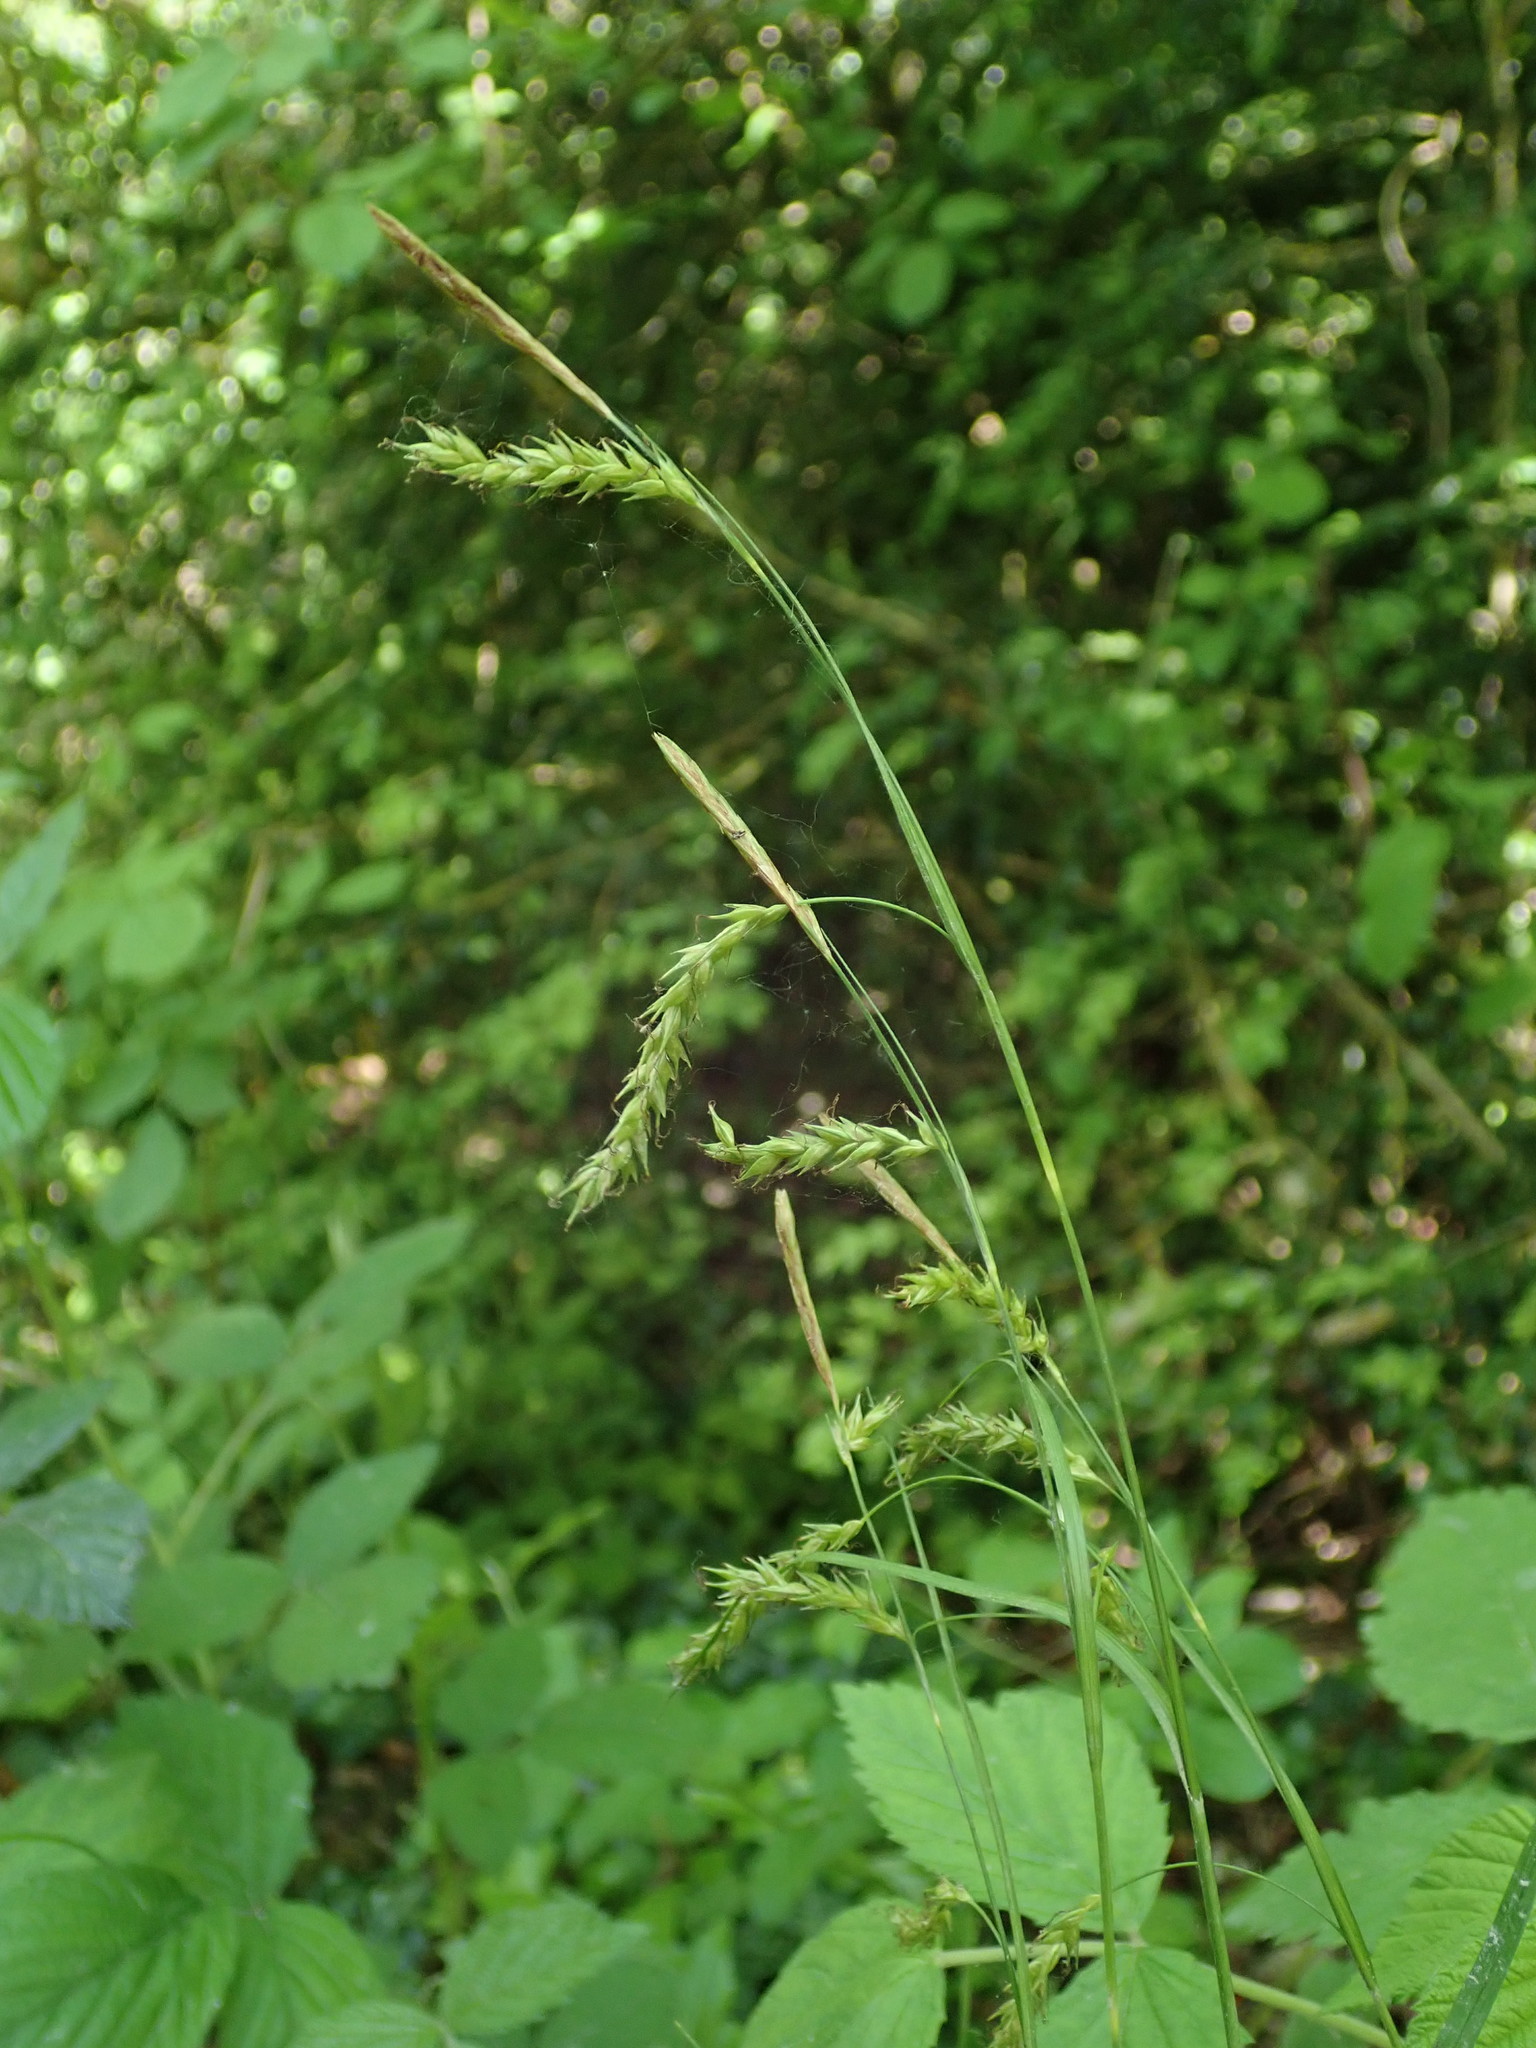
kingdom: Plantae
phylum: Tracheophyta
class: Liliopsida
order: Poales
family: Cyperaceae
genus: Carex
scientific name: Carex sylvatica
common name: Wood-sedge
